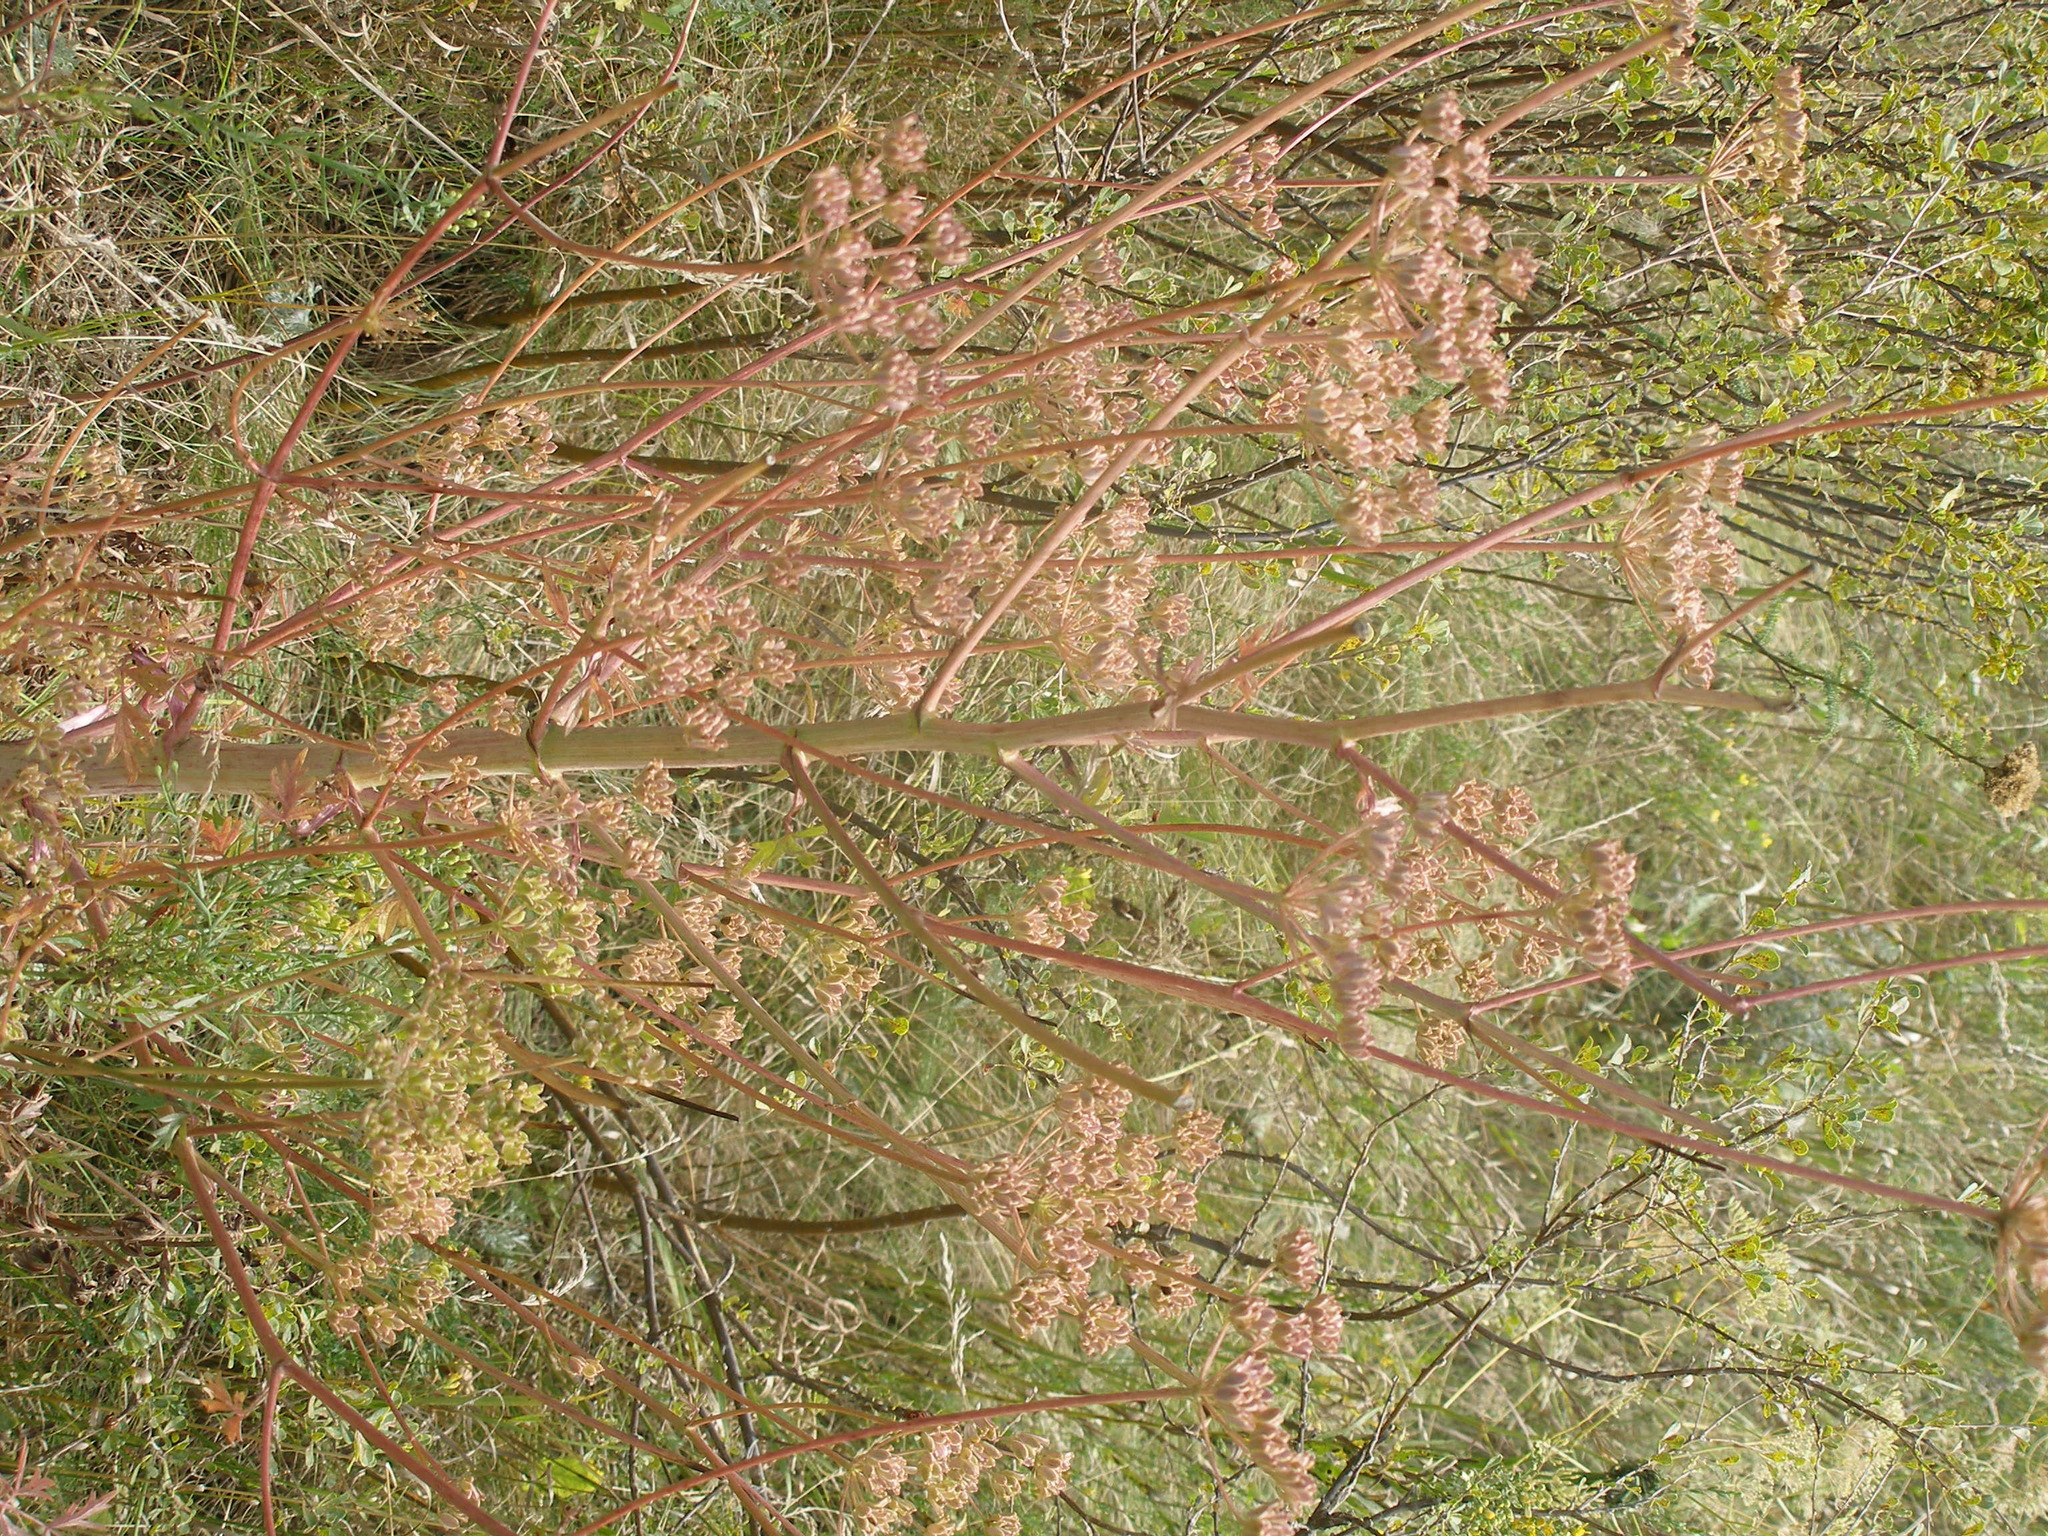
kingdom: Plantae
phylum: Tracheophyta
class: Magnoliopsida
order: Apiales
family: Apiaceae
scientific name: Apiaceae
